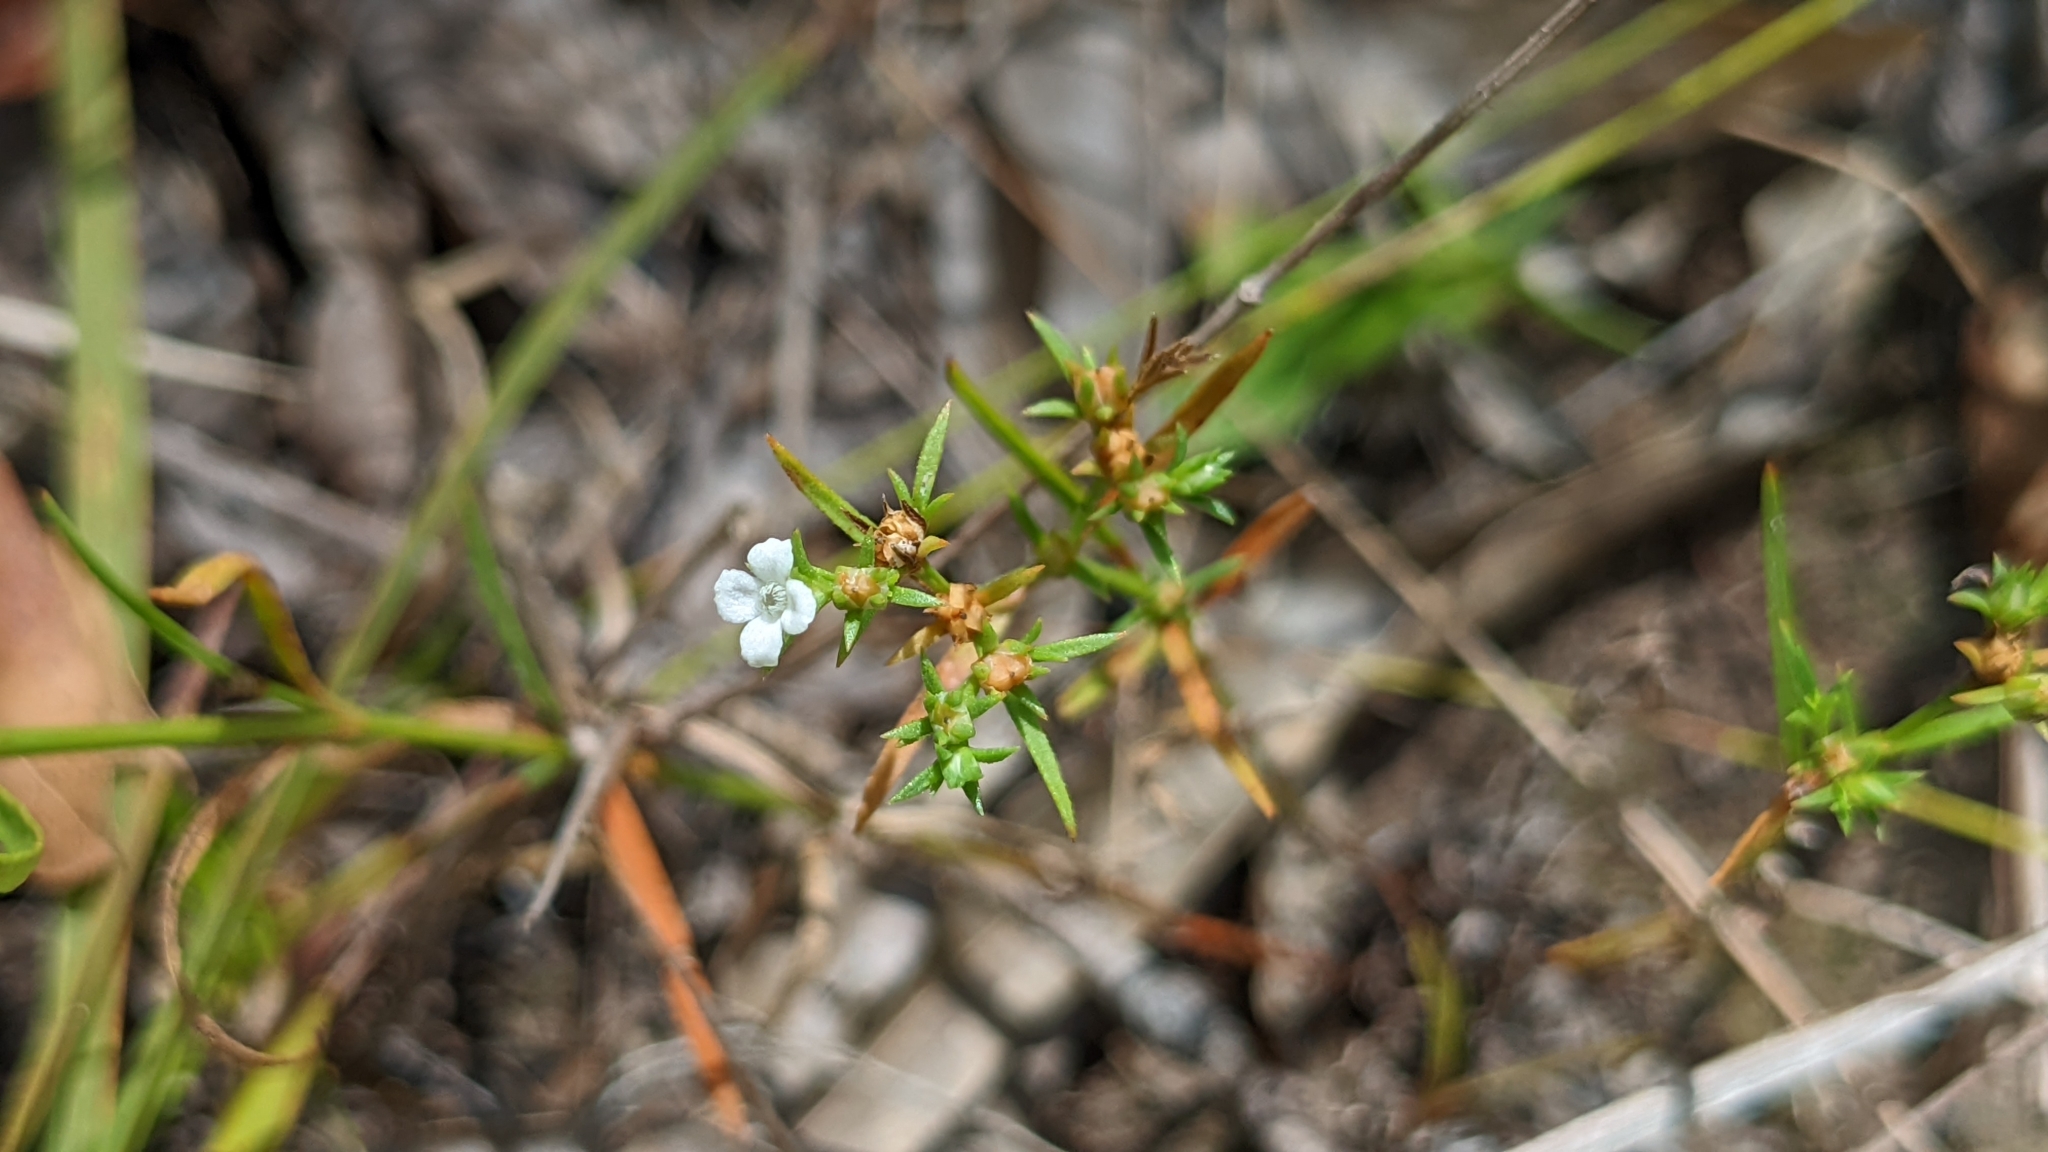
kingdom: Plantae
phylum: Tracheophyta
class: Magnoliopsida
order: Lamiales
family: Tetrachondraceae
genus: Polypremum
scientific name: Polypremum procumbens
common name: Juniper-leaf
